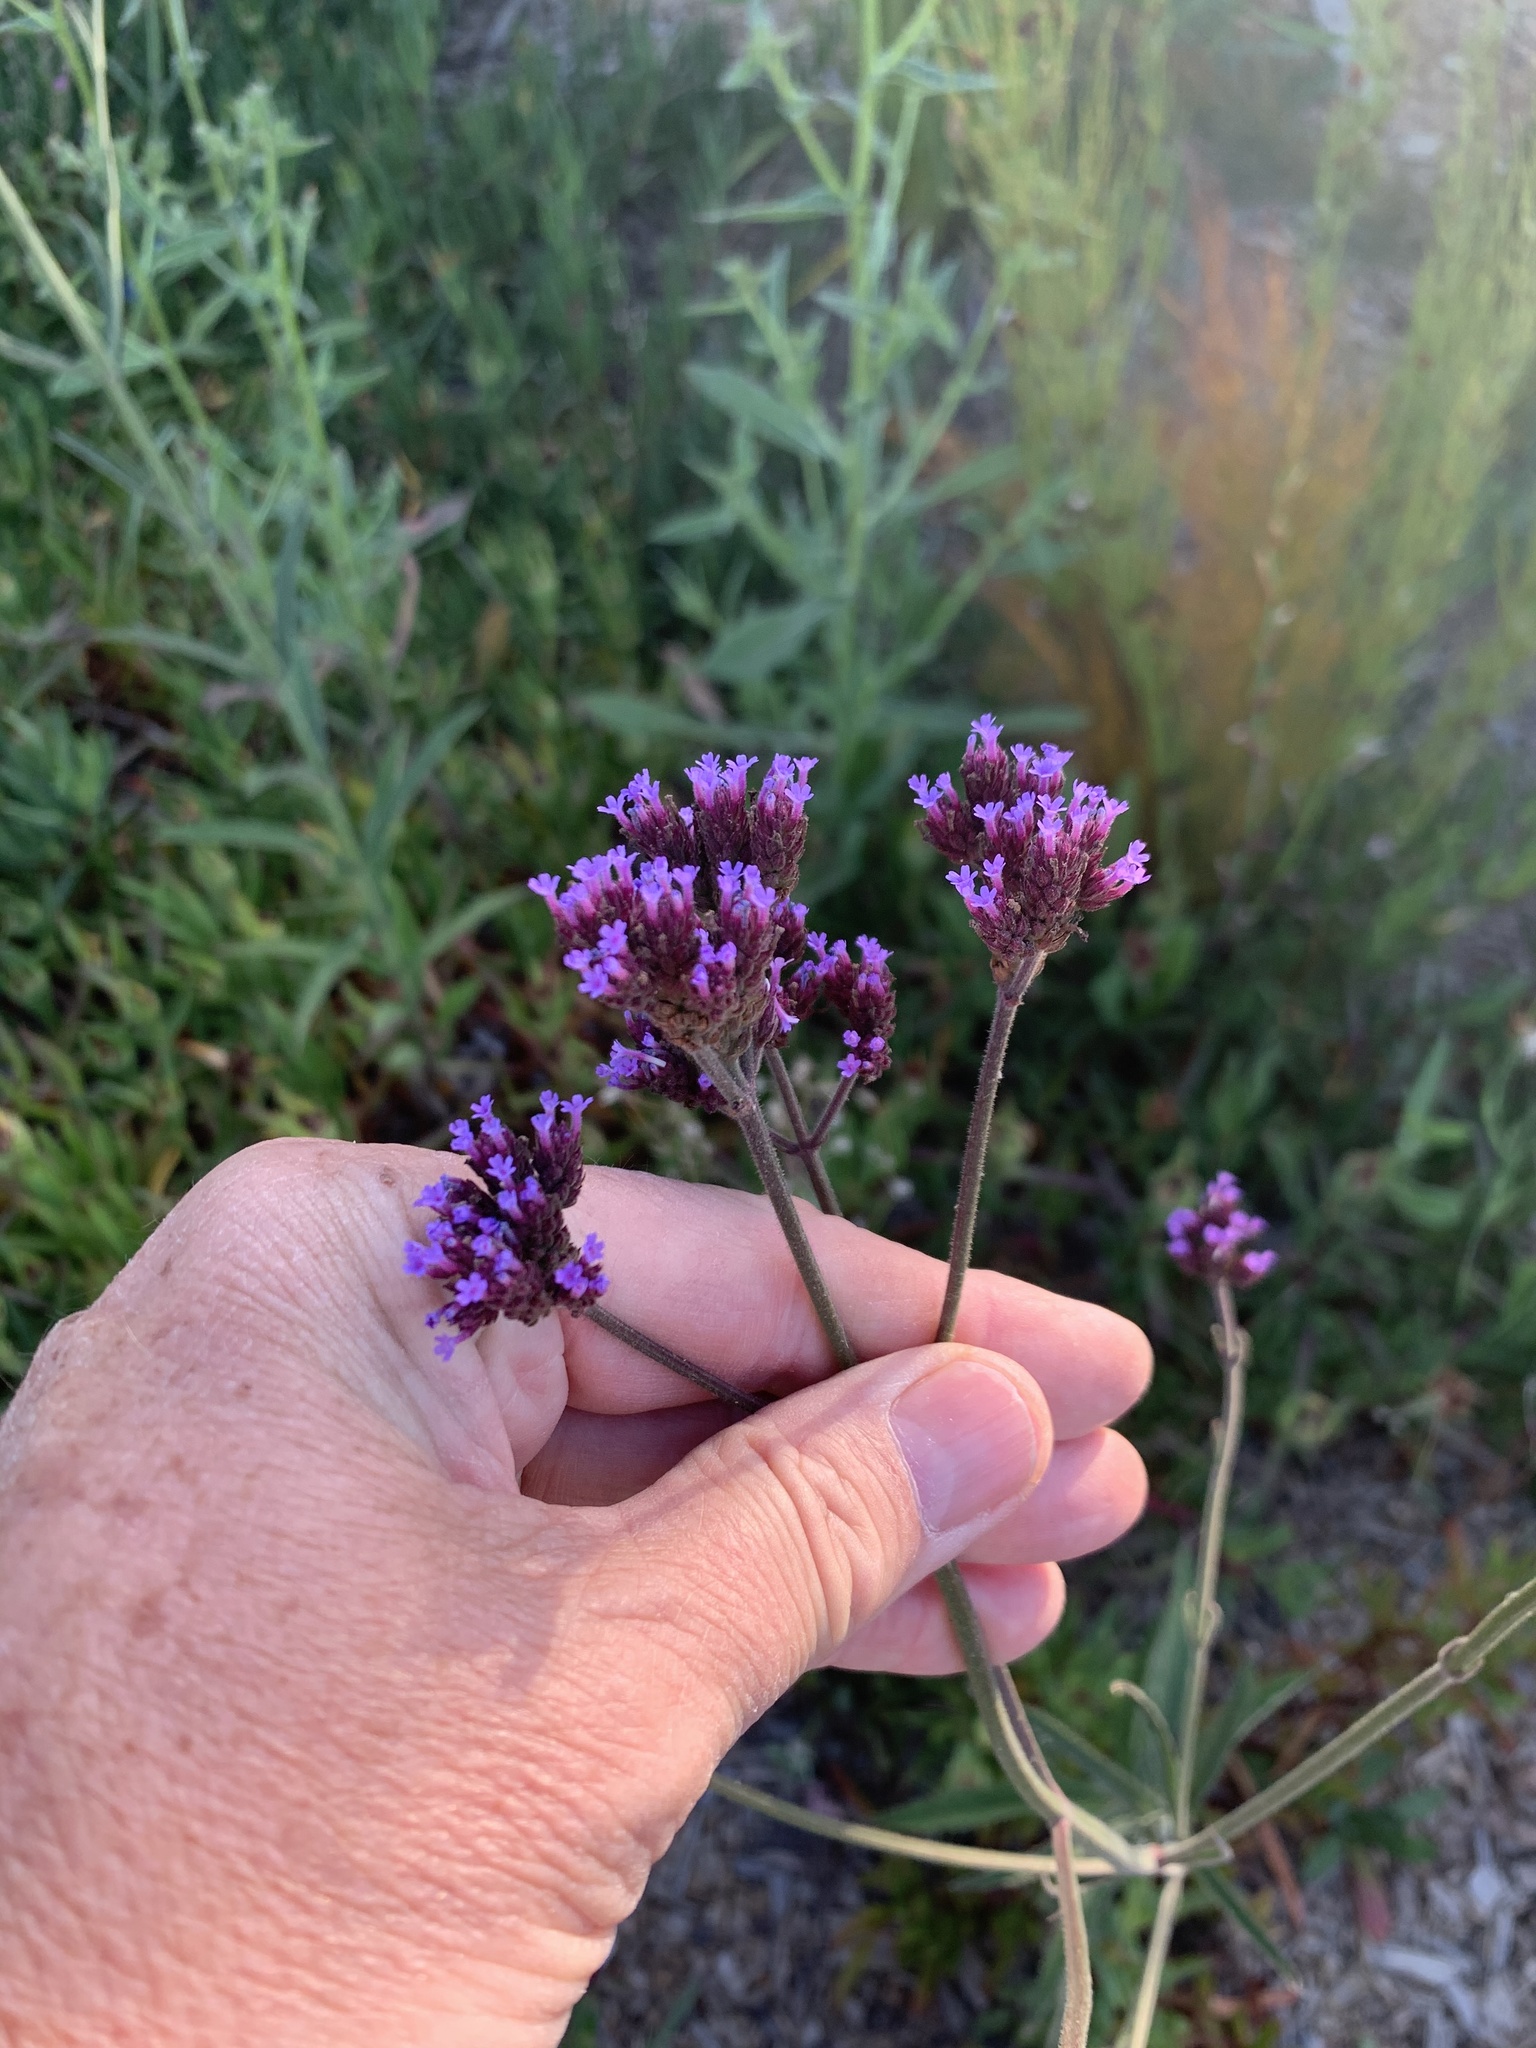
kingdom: Plantae
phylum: Tracheophyta
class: Magnoliopsida
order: Lamiales
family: Verbenaceae
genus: Verbena
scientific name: Verbena bonariensis
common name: Purpletop vervain
